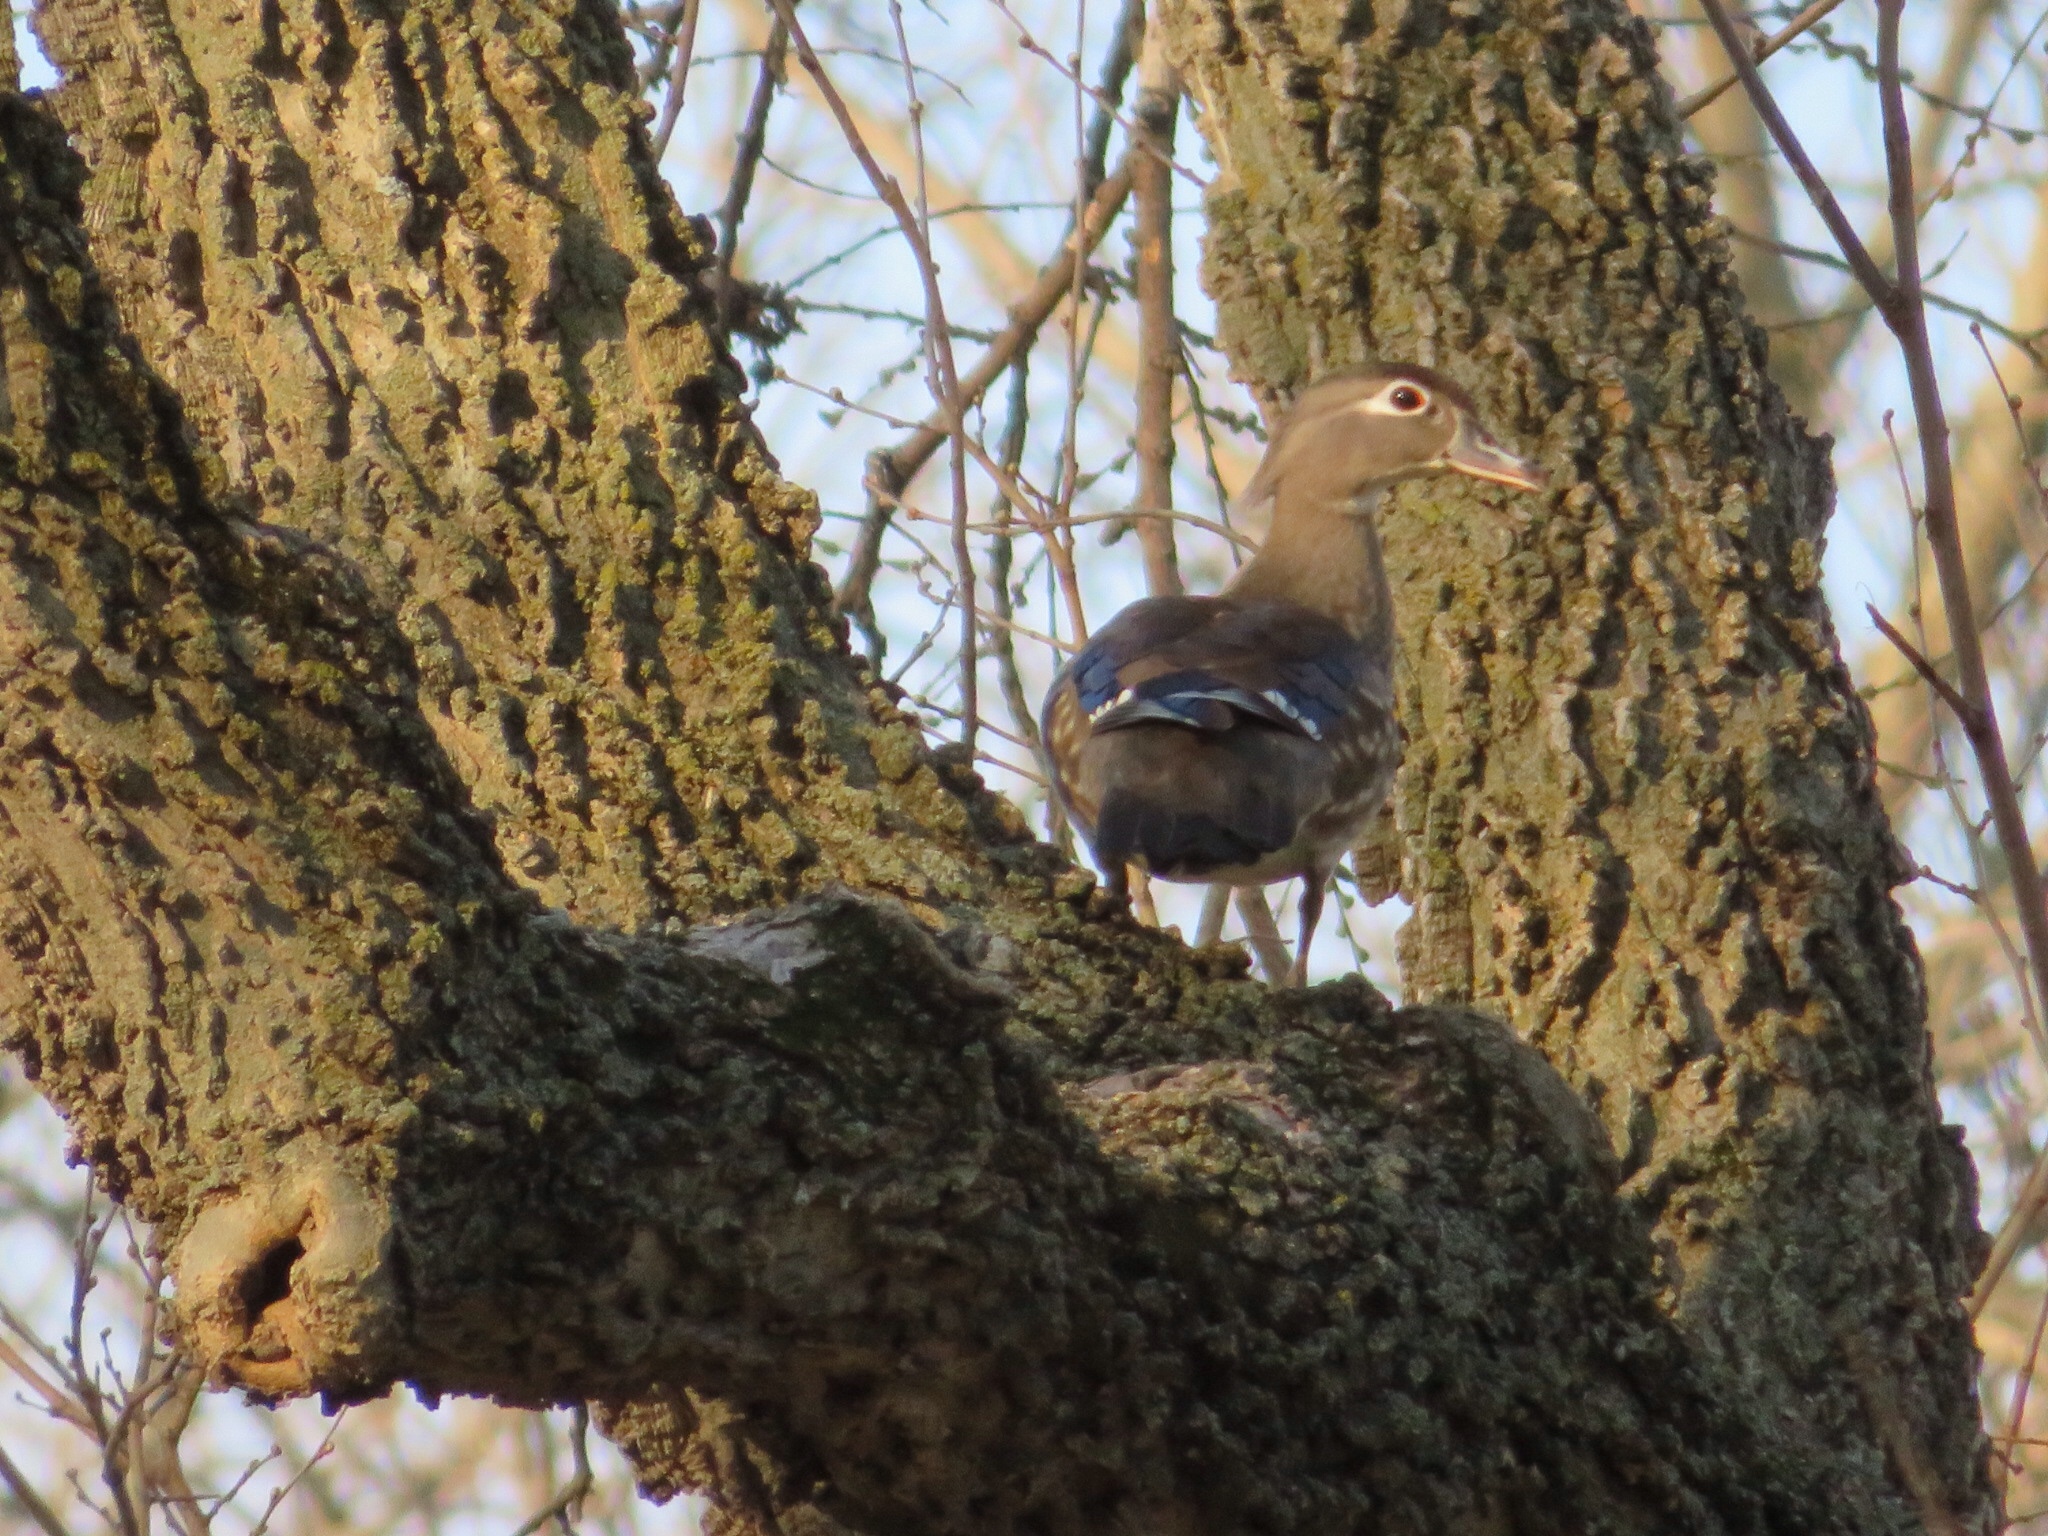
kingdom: Animalia
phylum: Chordata
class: Aves
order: Anseriformes
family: Anatidae
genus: Aix
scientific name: Aix sponsa
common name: Wood duck
